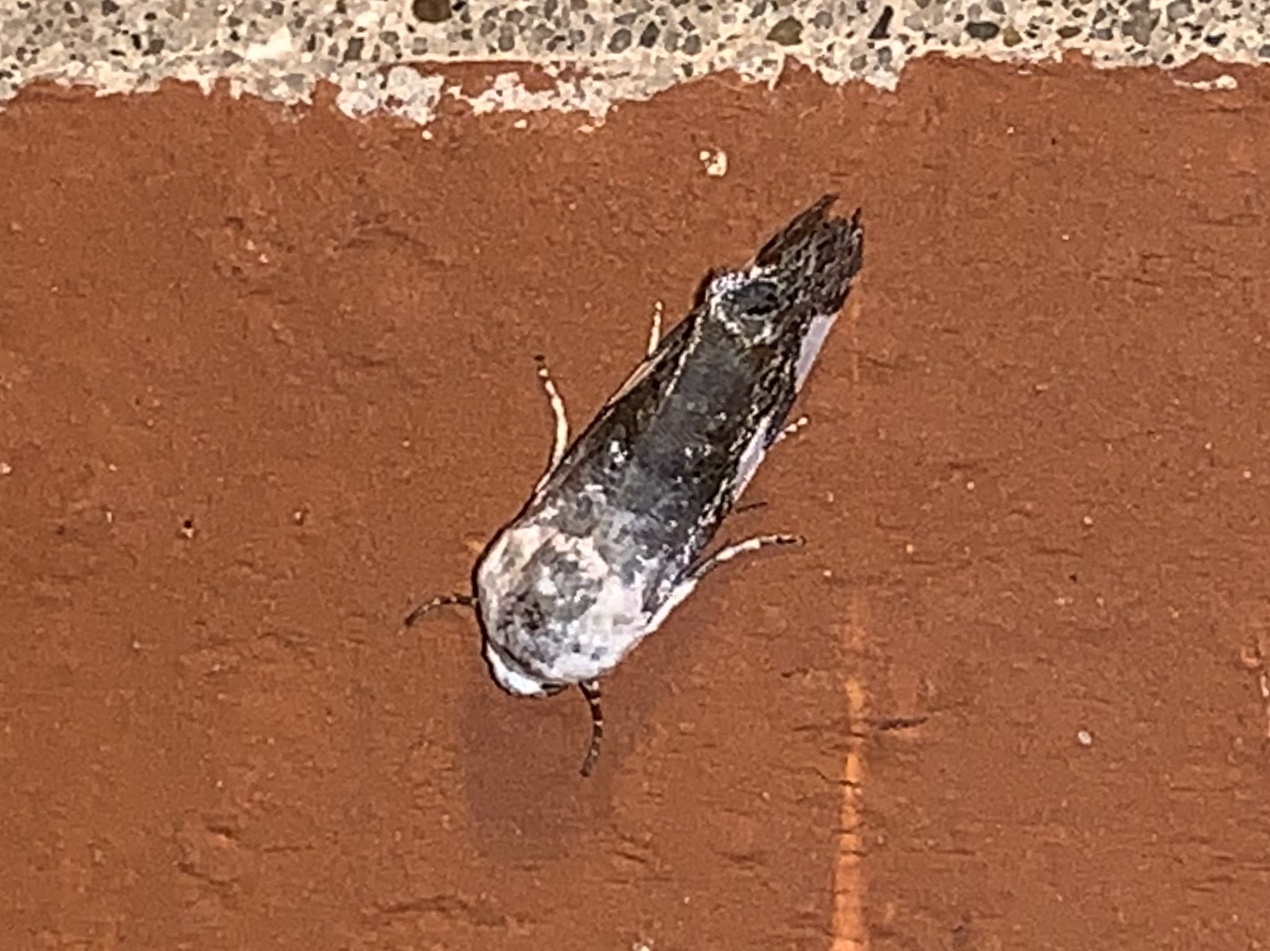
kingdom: Animalia
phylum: Arthropoda
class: Insecta
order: Lepidoptera
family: Noctuidae
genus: Acontia
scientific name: Acontia quadriplaga
